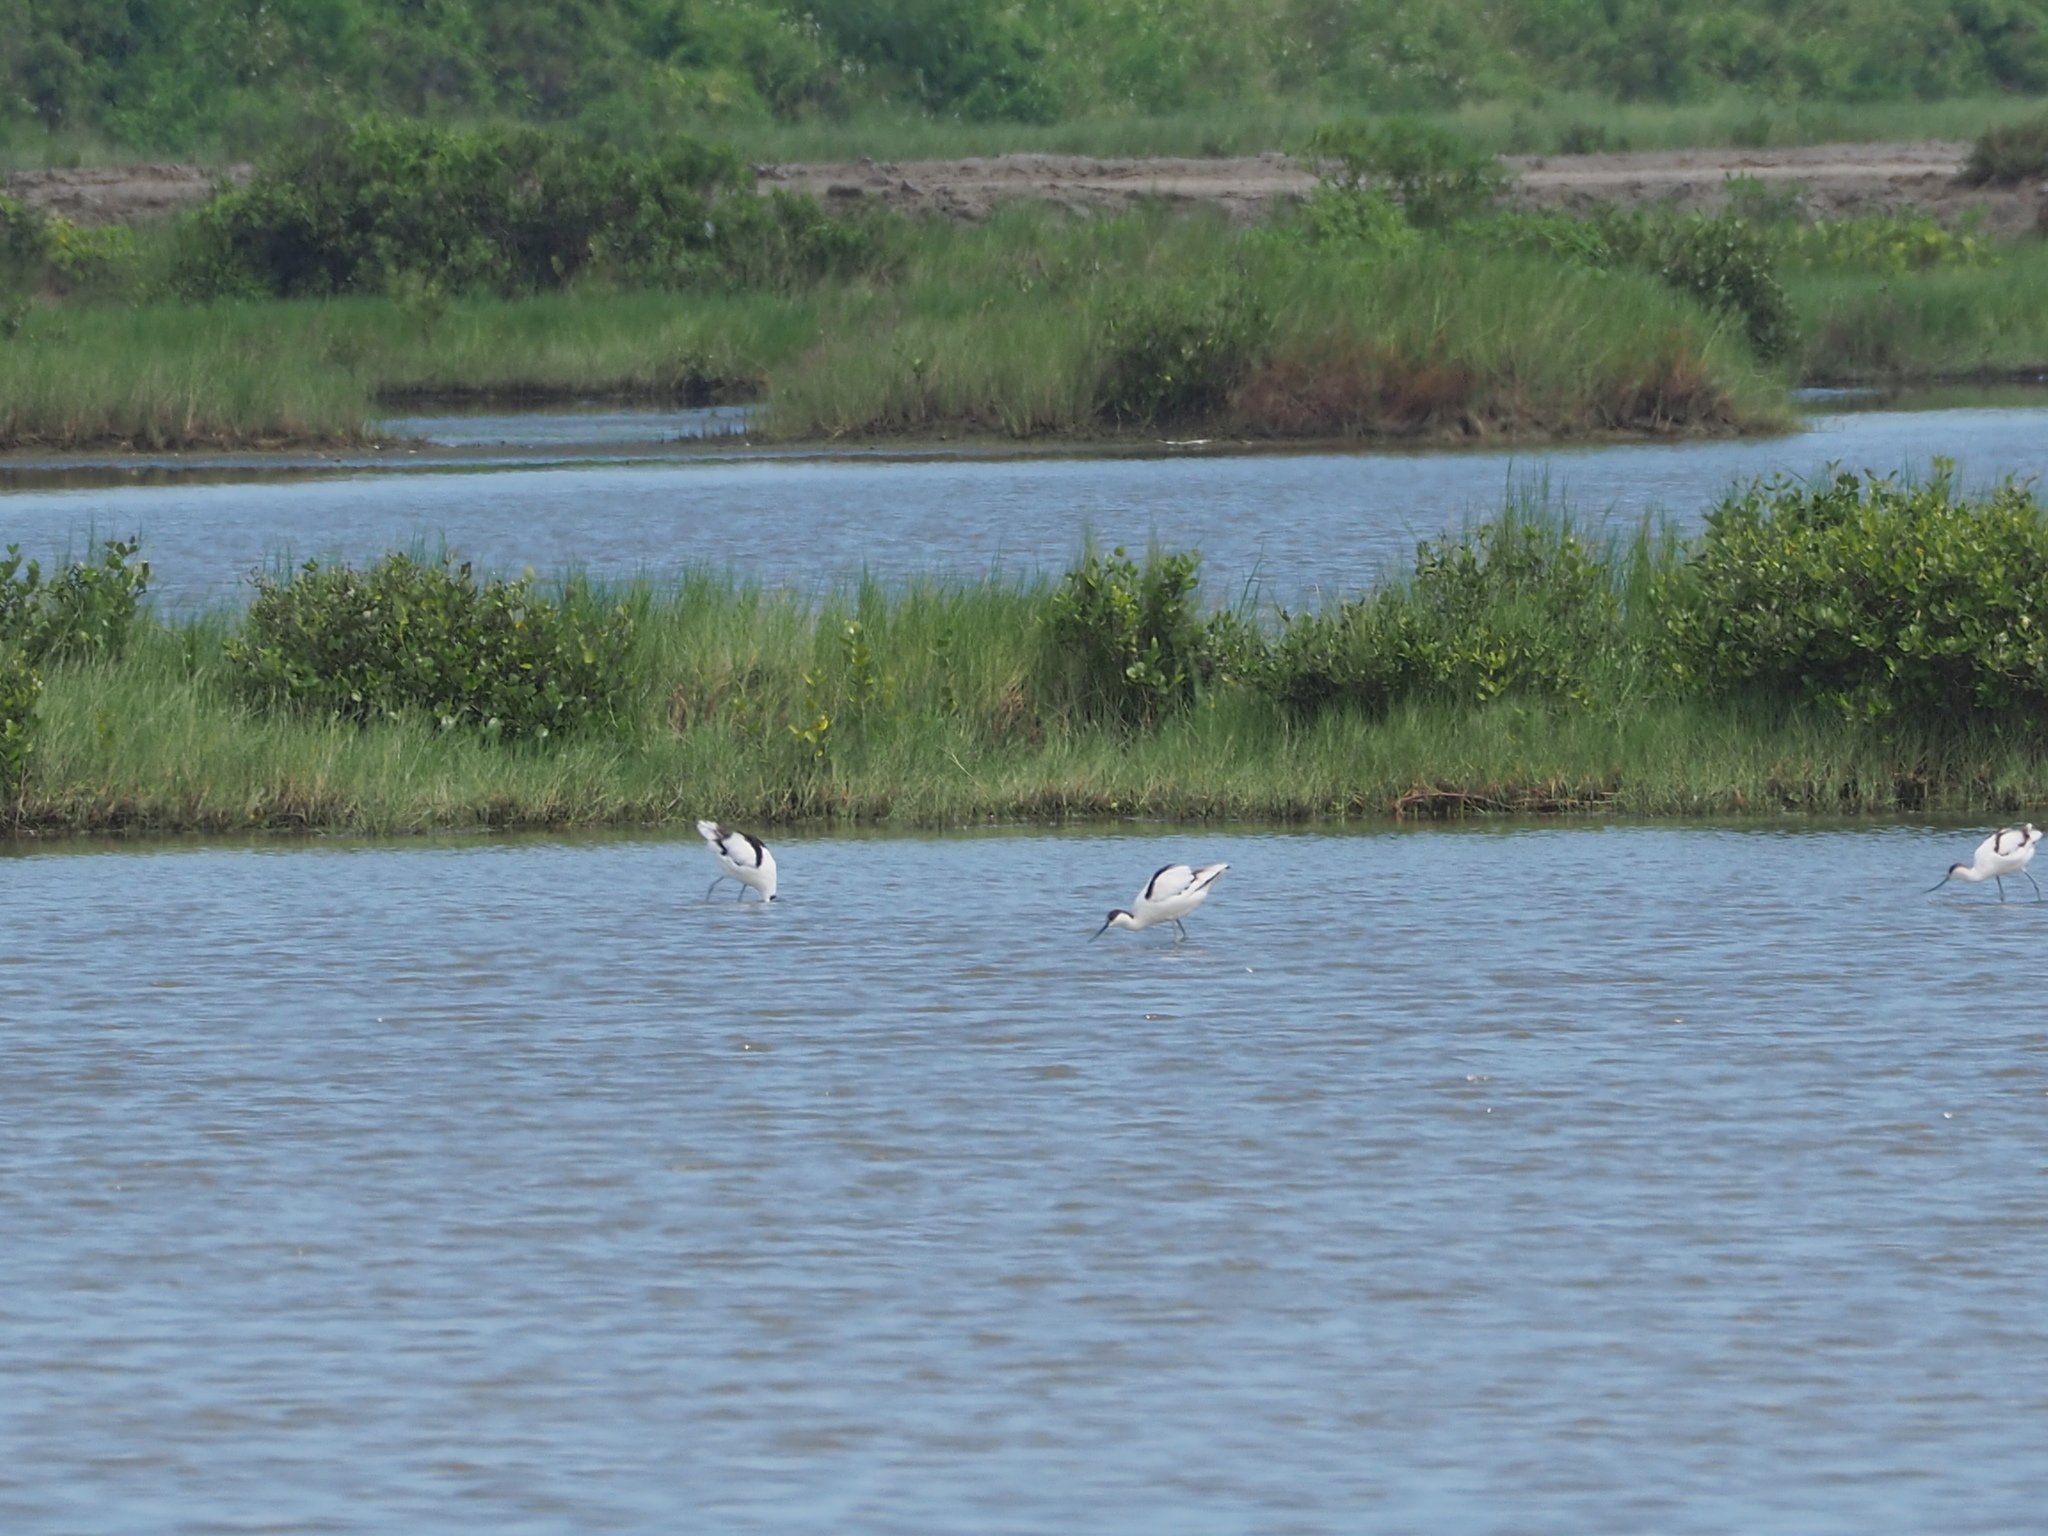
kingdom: Animalia
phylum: Chordata
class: Aves
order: Charadriiformes
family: Recurvirostridae
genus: Recurvirostra
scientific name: Recurvirostra avosetta
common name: Pied avocet
